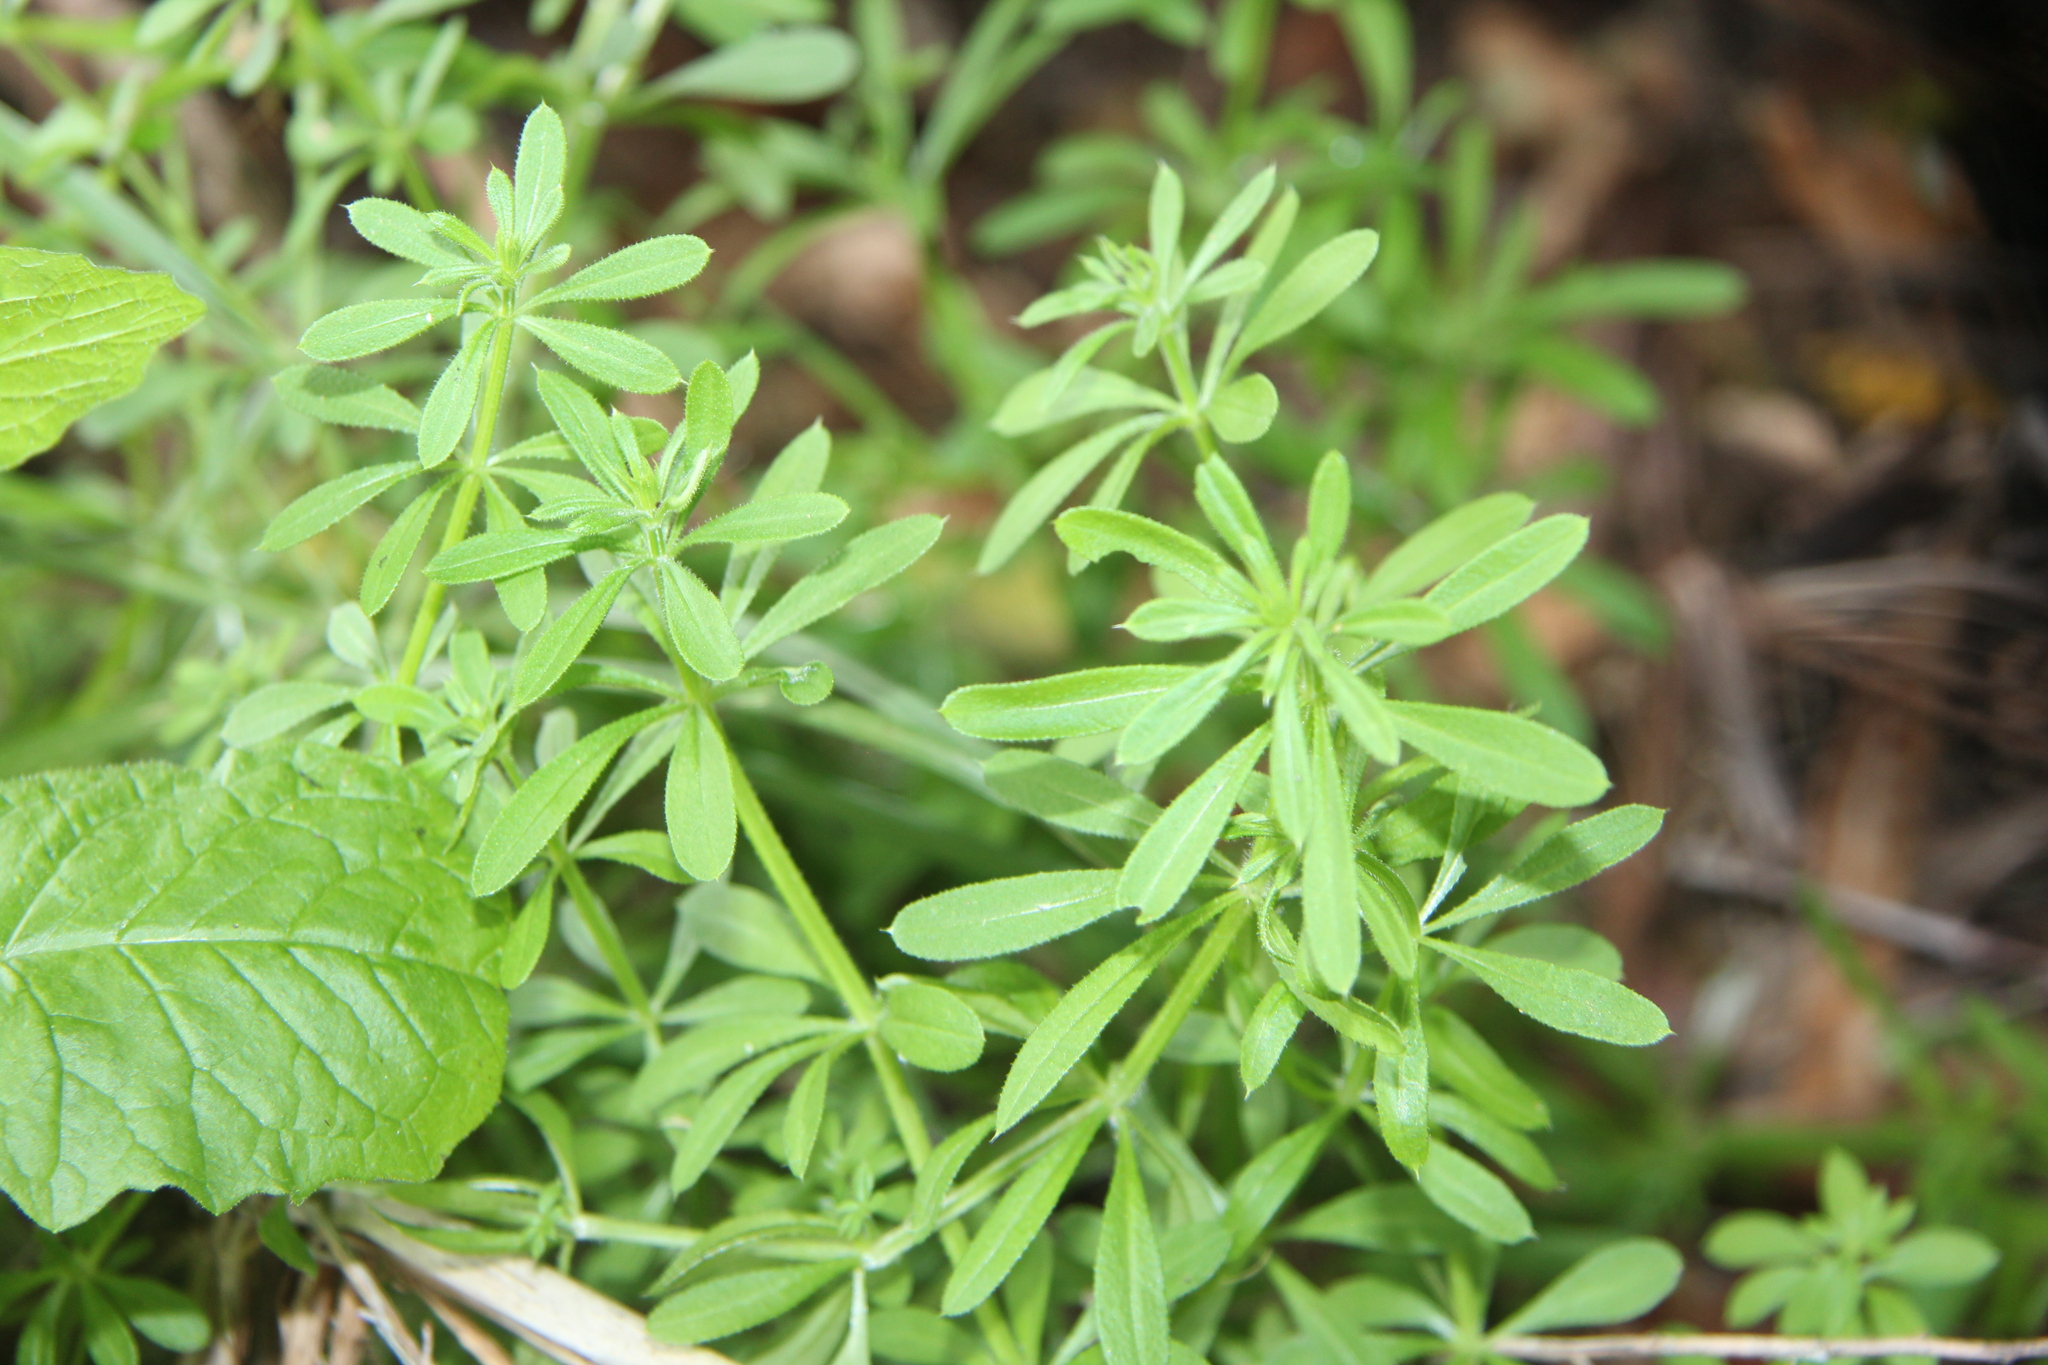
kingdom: Plantae
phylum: Tracheophyta
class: Magnoliopsida
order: Gentianales
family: Rubiaceae
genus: Galium
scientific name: Galium aparine
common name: Cleavers
